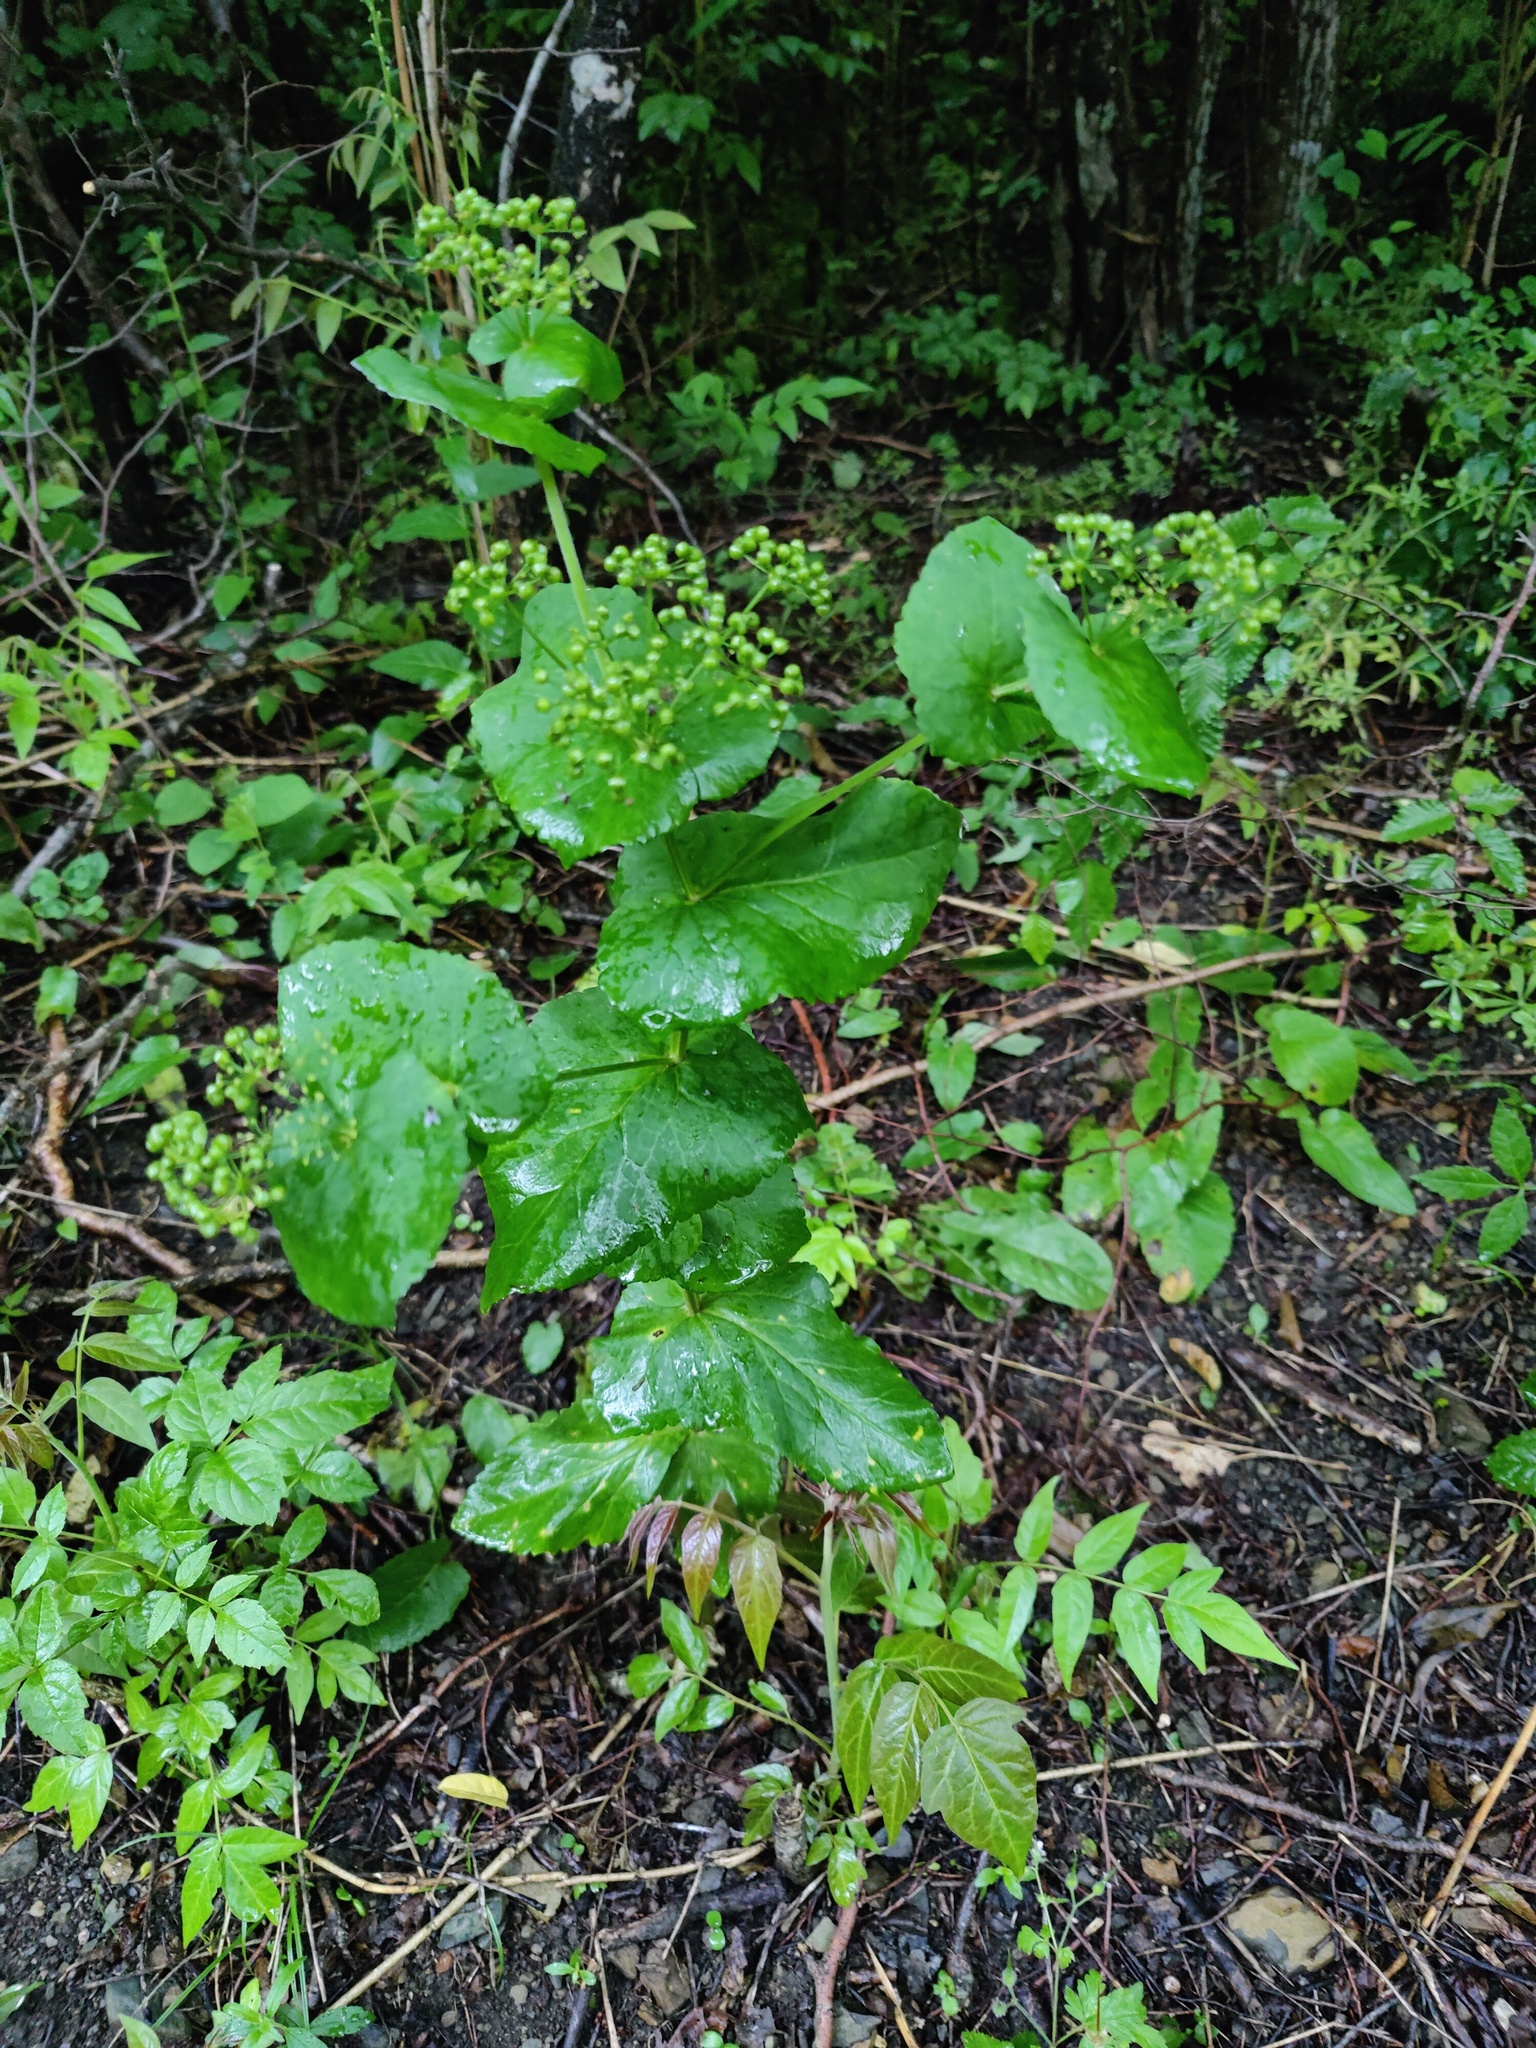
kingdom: Plantae
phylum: Tracheophyta
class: Magnoliopsida
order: Apiales
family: Apiaceae
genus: Smyrnium
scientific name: Smyrnium perfoliatum
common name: Perfoliate alexanders
